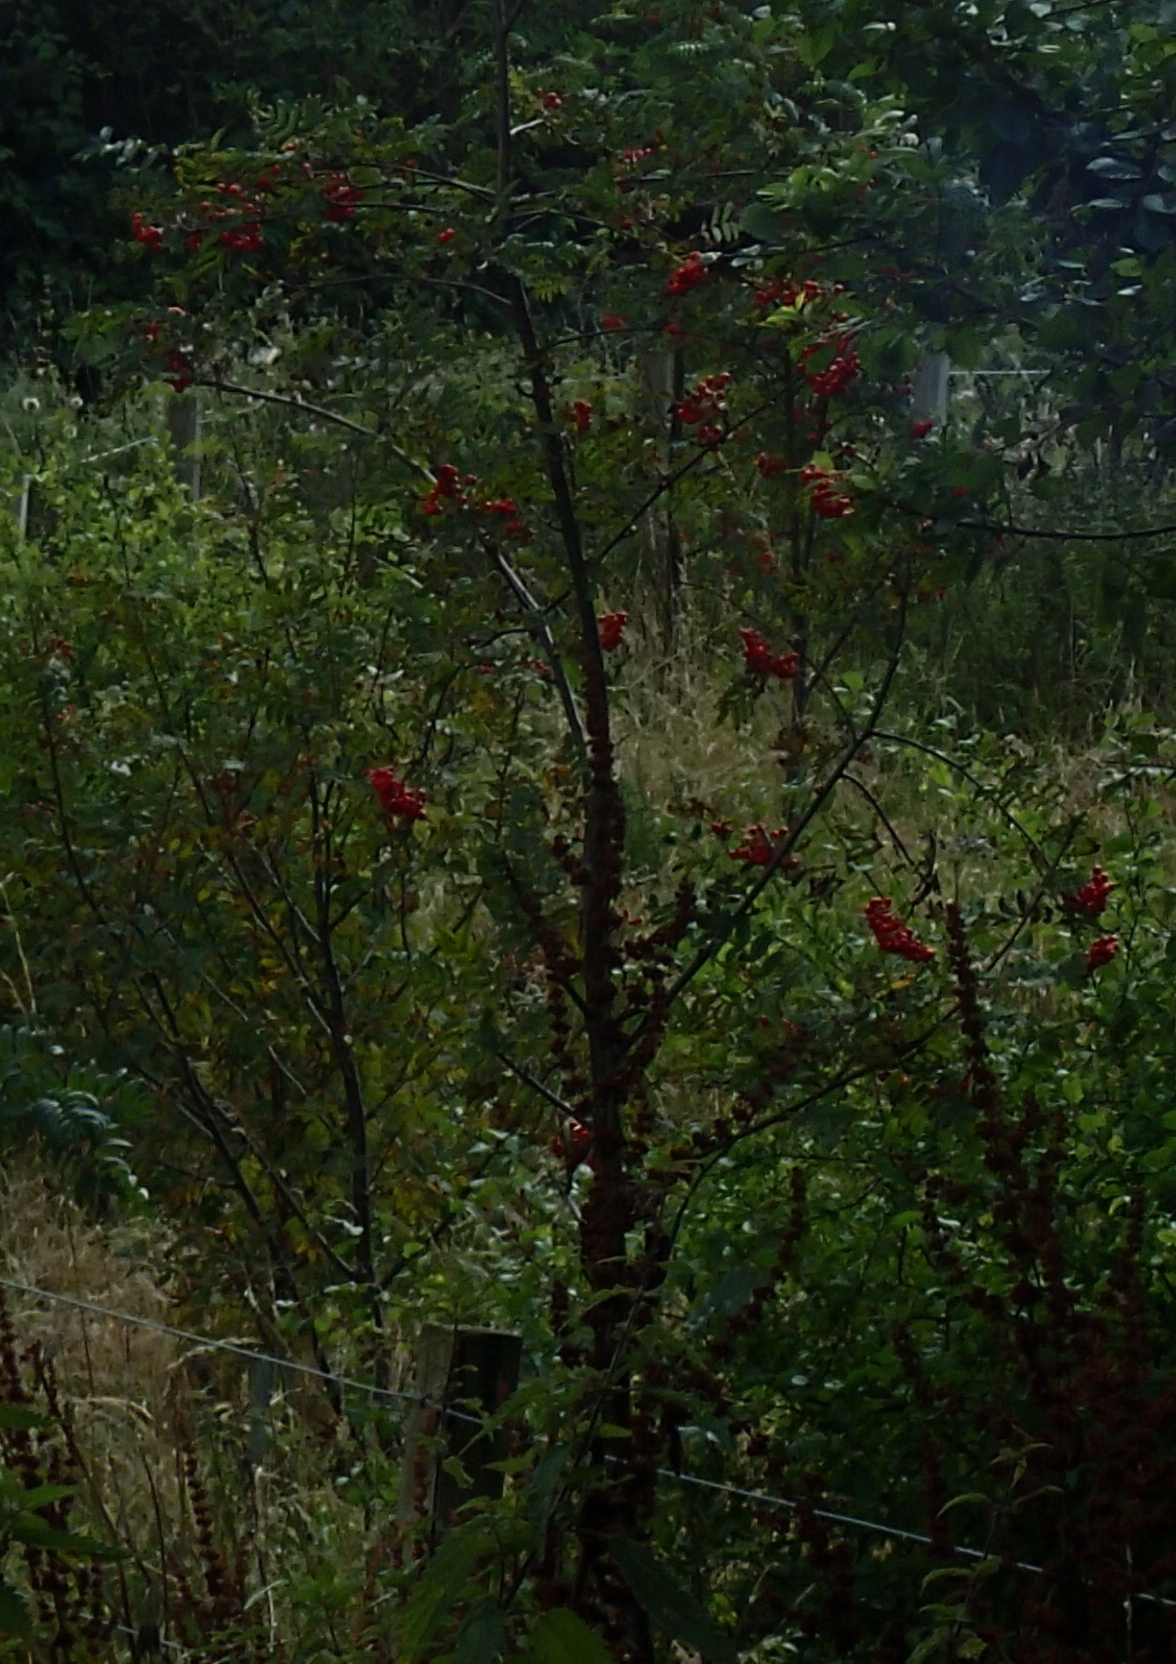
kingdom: Plantae
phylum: Tracheophyta
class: Magnoliopsida
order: Rosales
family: Rosaceae
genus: Sorbus
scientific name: Sorbus aucuparia
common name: Rowan
